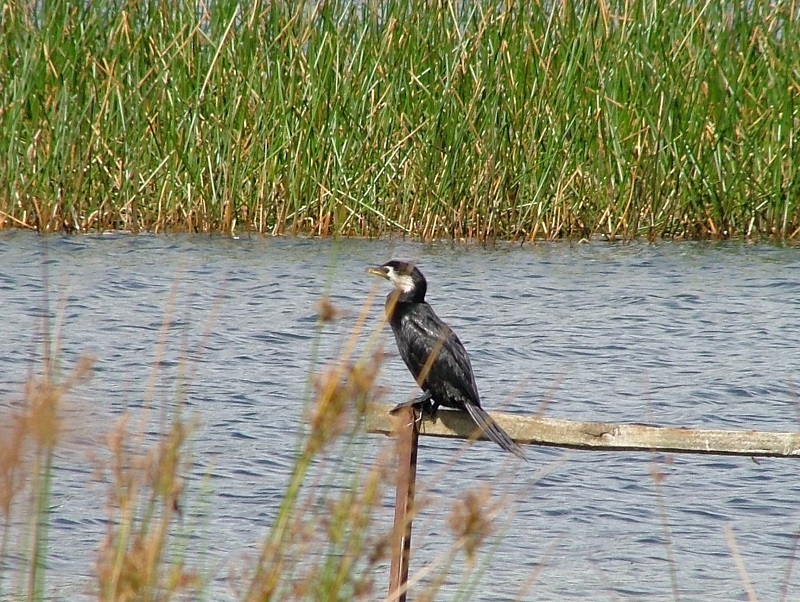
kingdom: Animalia
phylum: Chordata
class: Aves
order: Suliformes
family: Phalacrocoracidae
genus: Microcarbo
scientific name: Microcarbo melanoleucos
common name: Little pied cormorant
